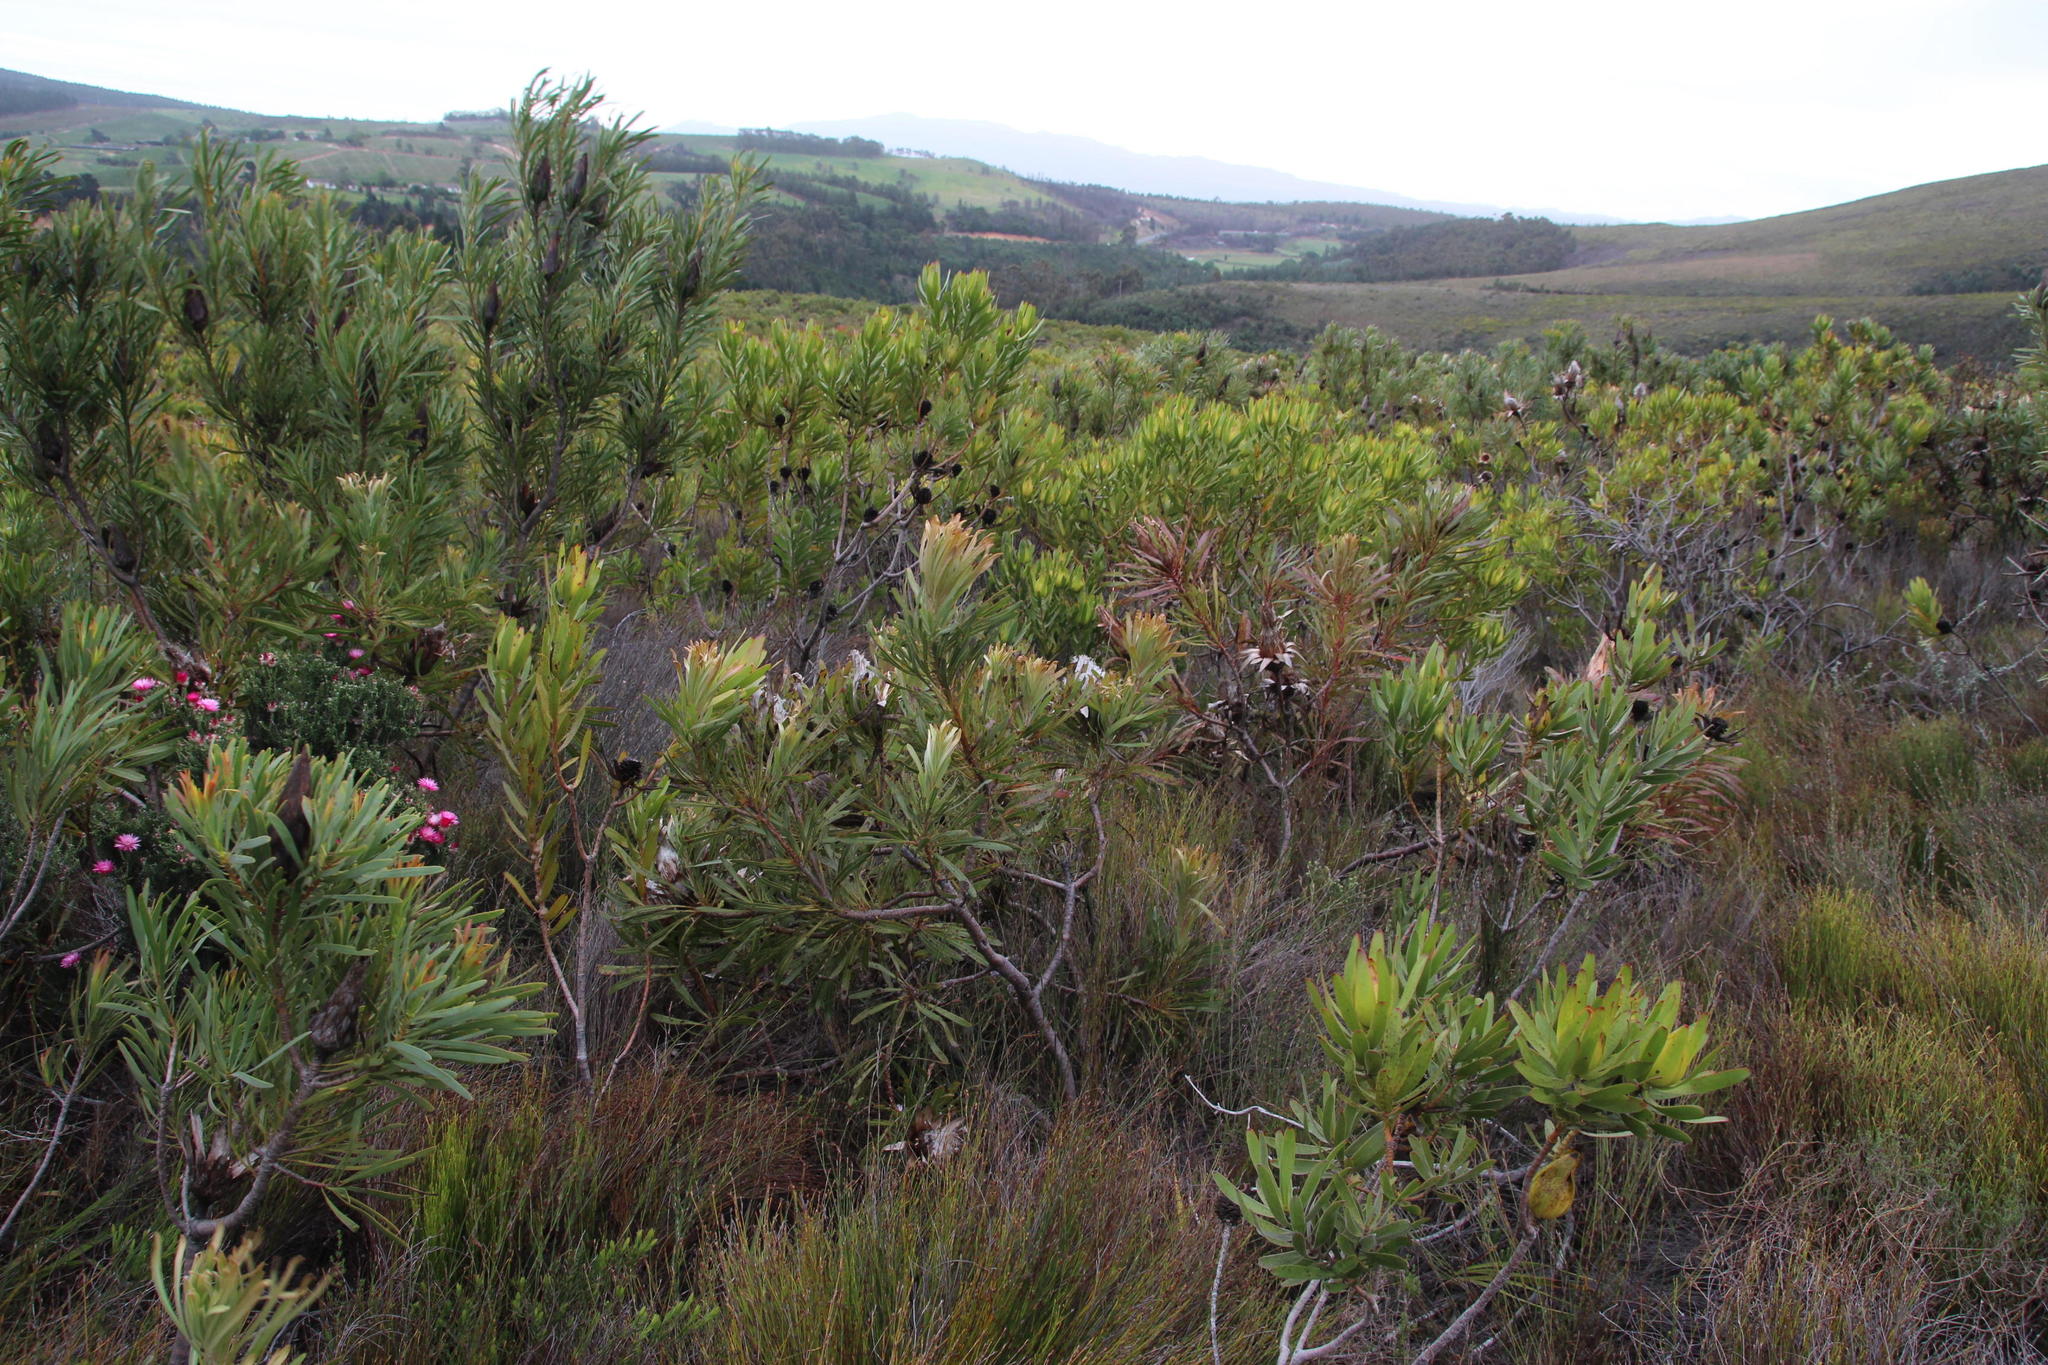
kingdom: Plantae
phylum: Tracheophyta
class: Magnoliopsida
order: Proteales
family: Proteaceae
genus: Protea
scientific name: Protea longifolia
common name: Long-leaf sugarbush
